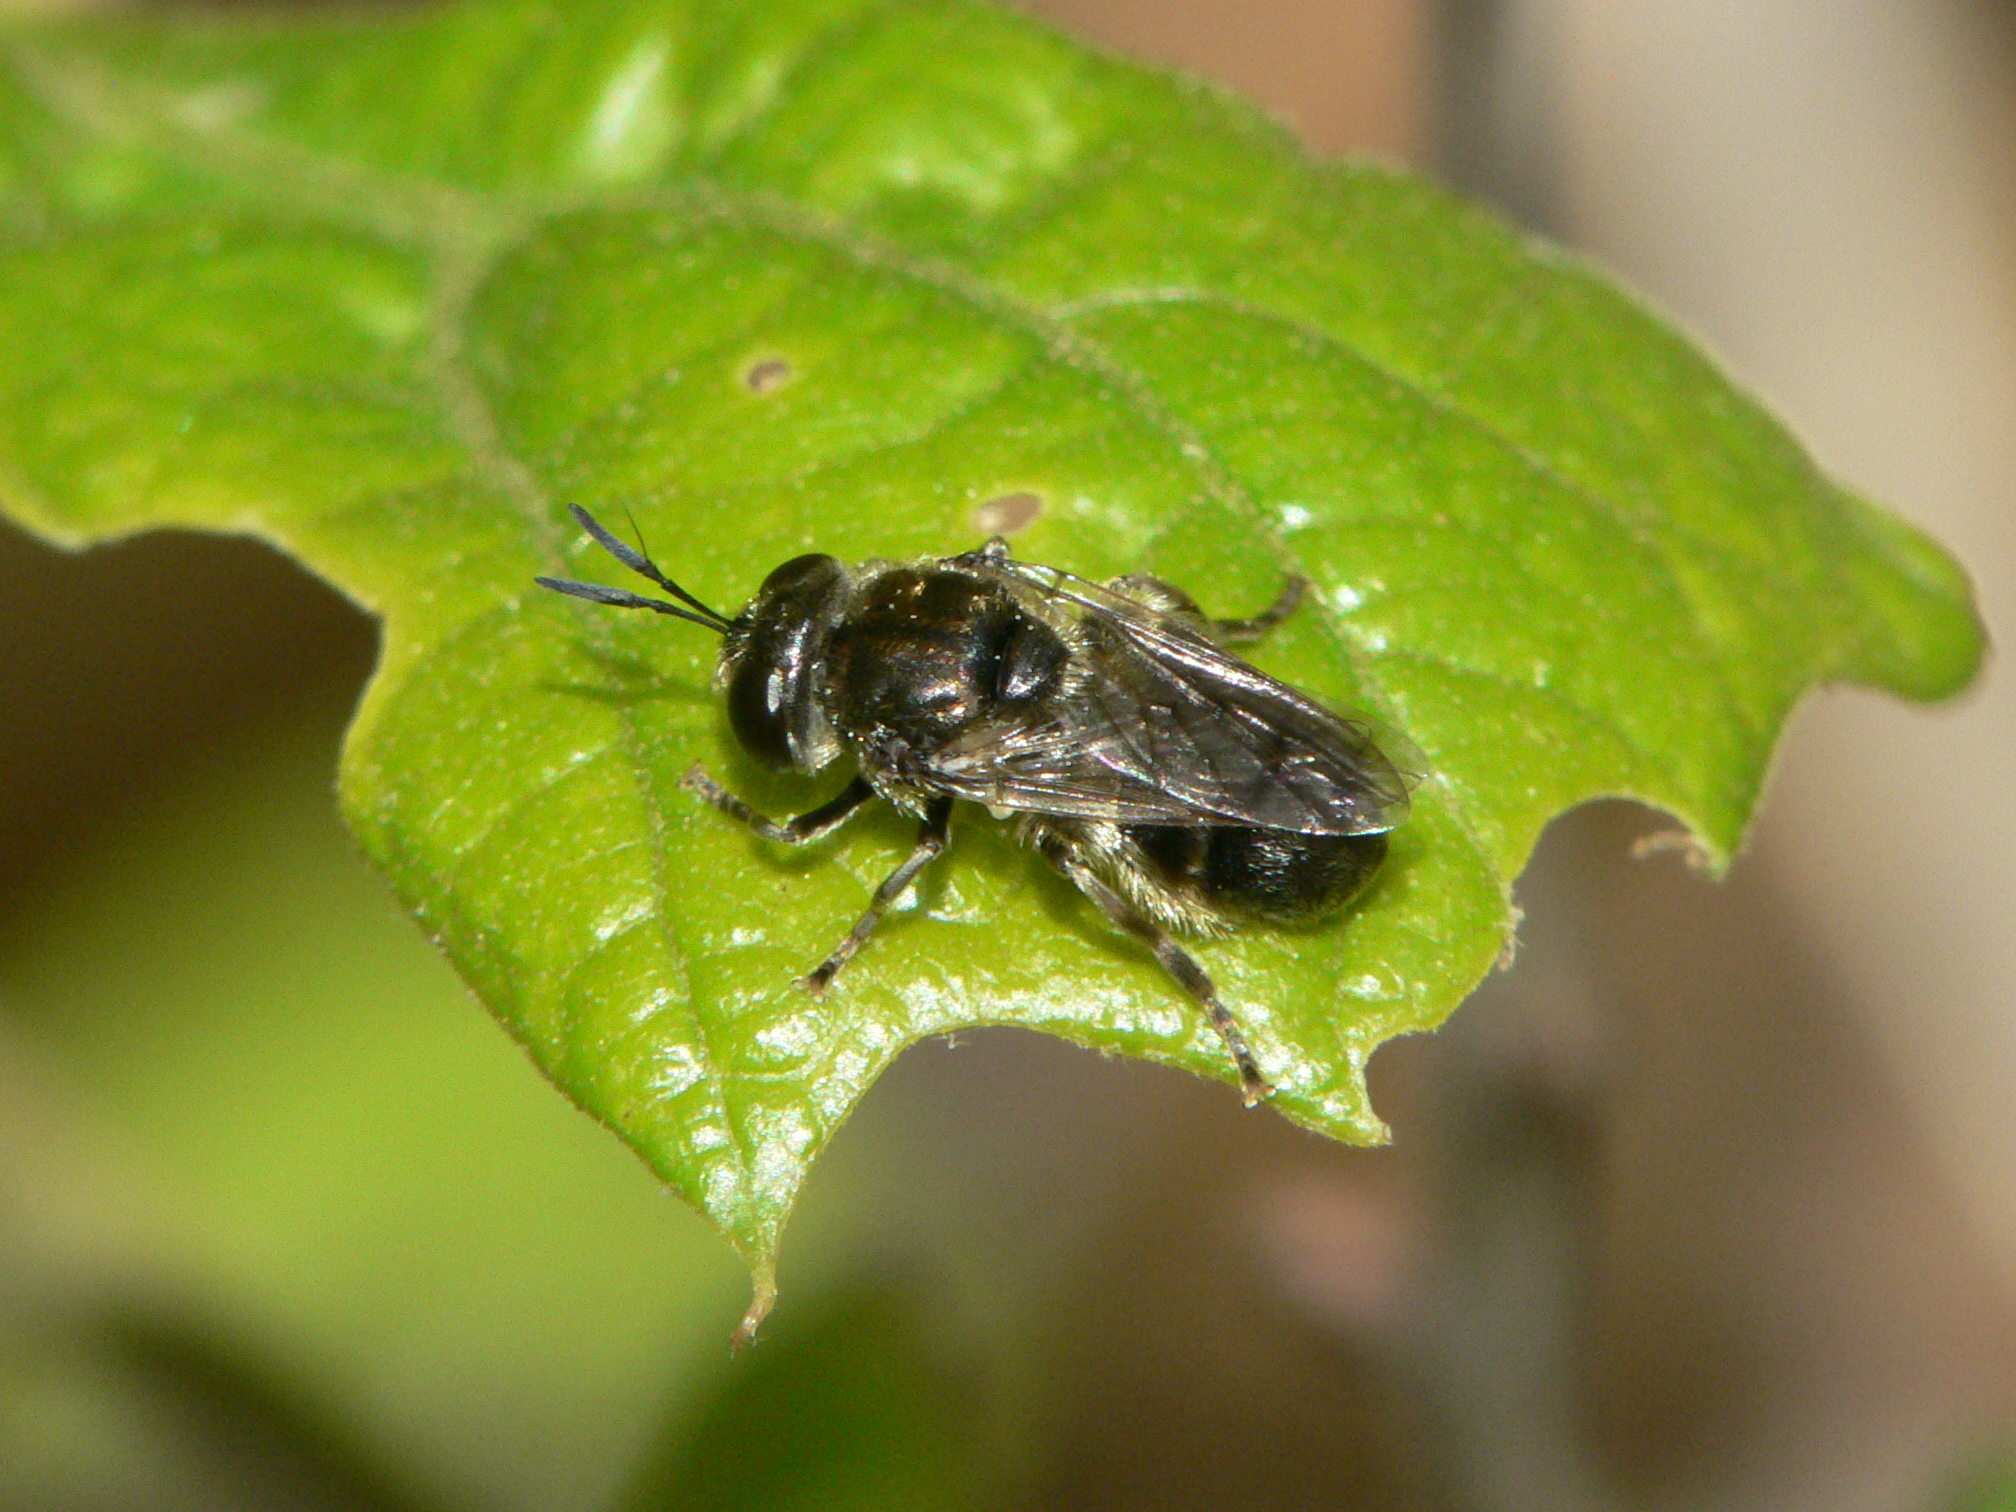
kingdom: Animalia
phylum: Arthropoda
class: Insecta
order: Diptera
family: Syrphidae
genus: Microdon
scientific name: Microdon tristis
